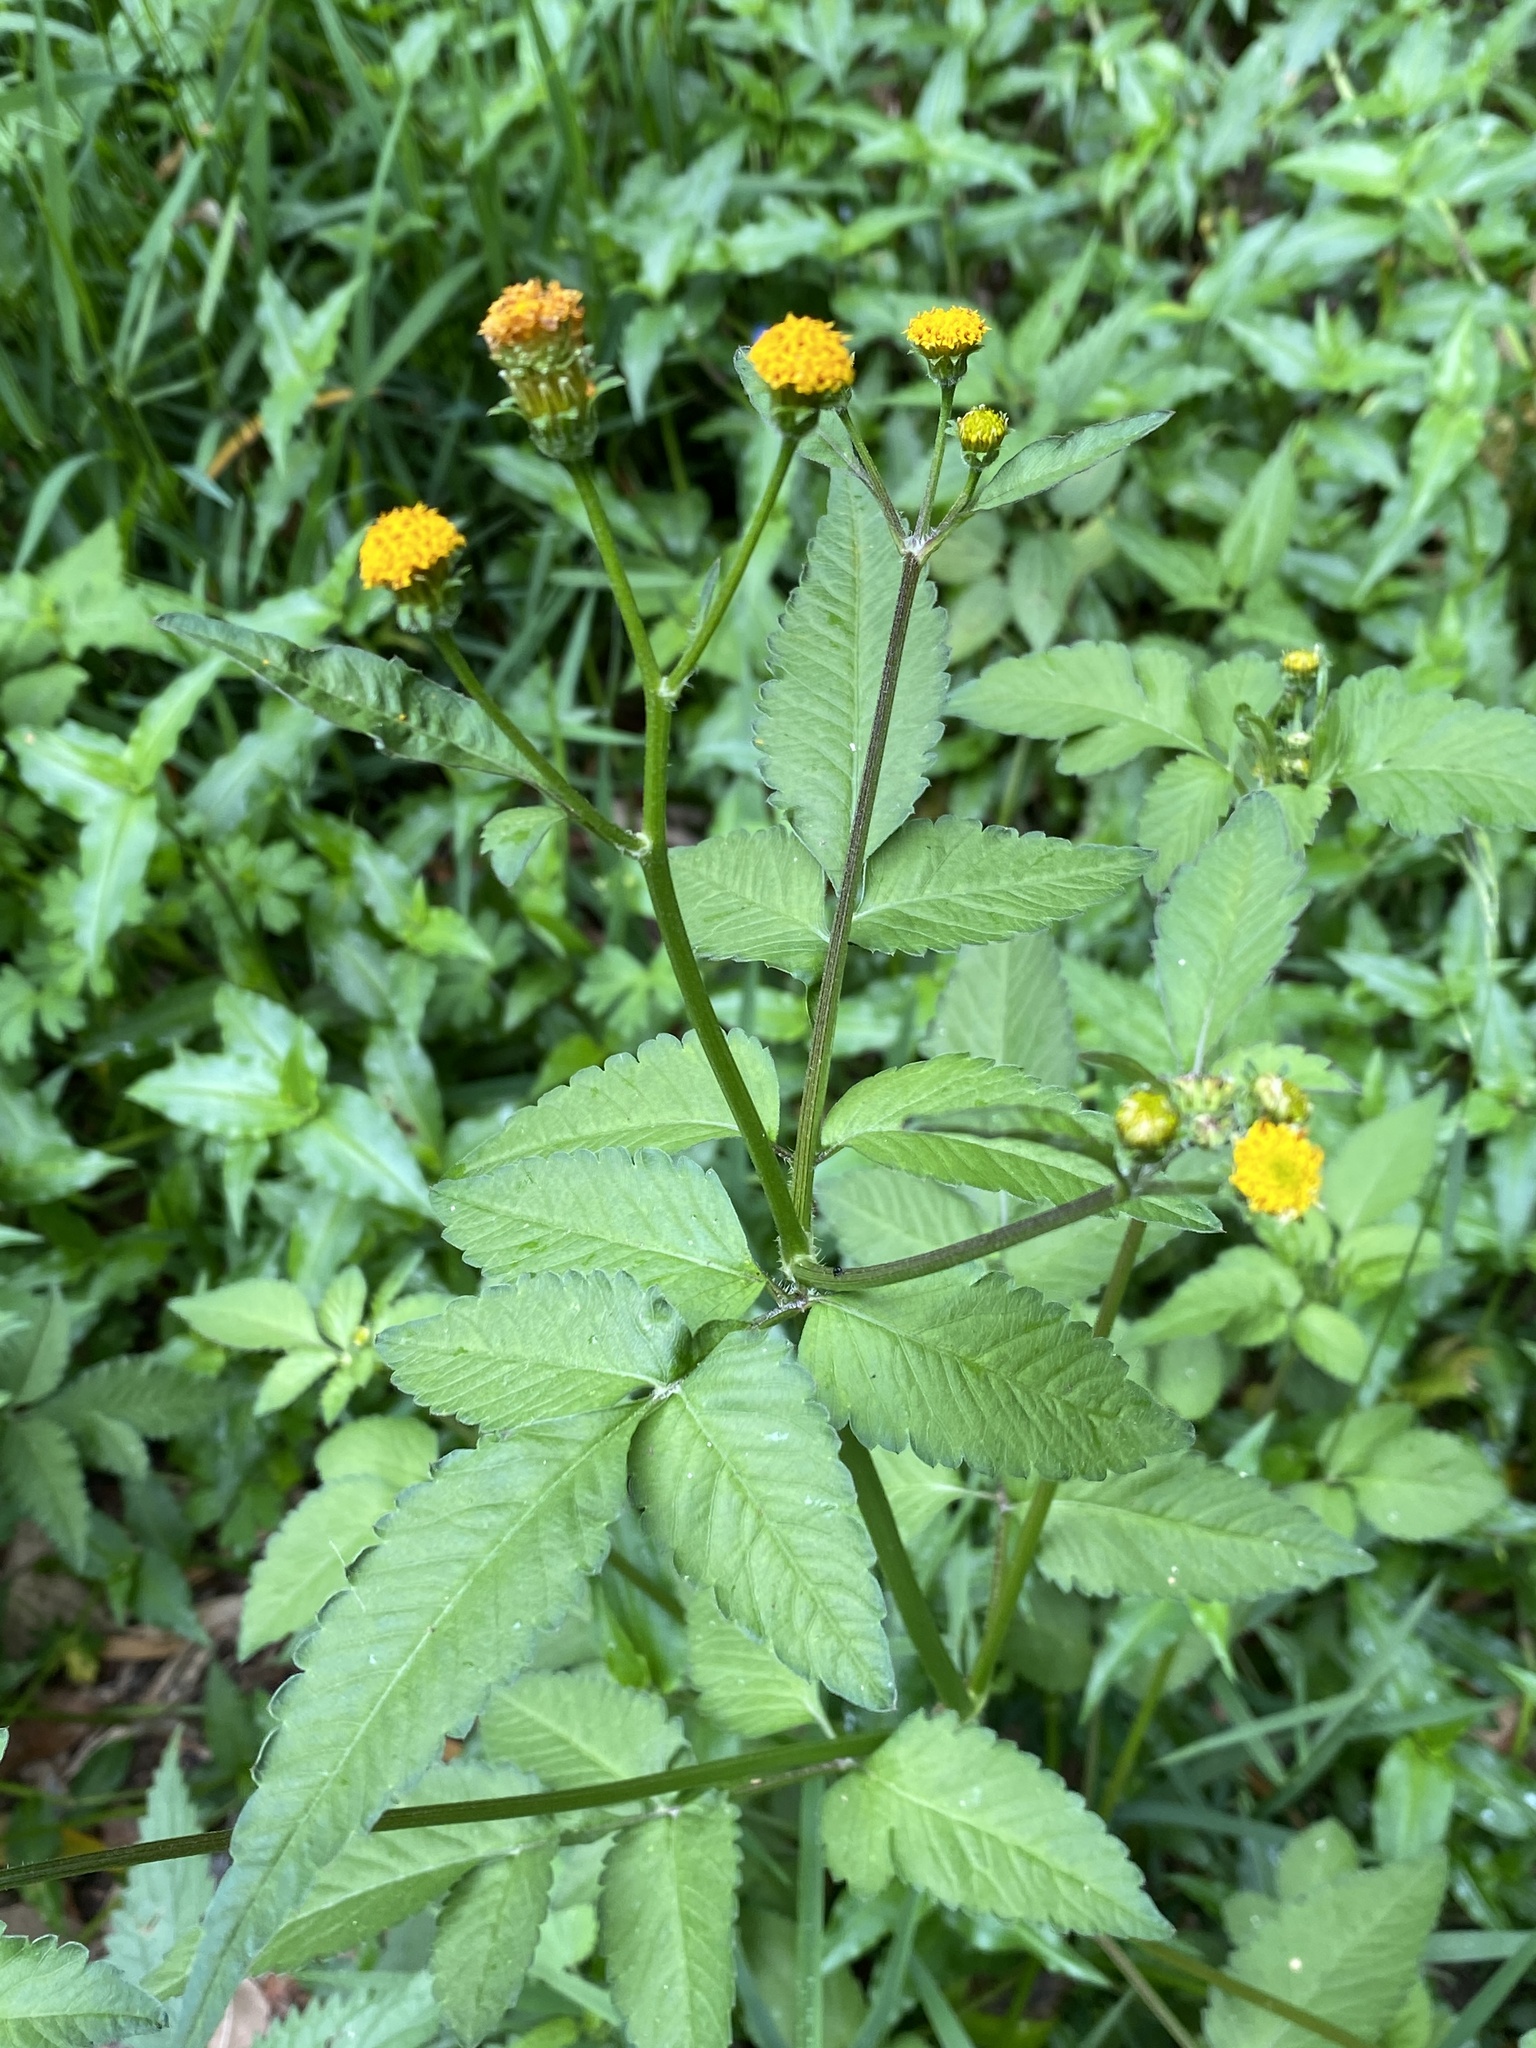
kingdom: Plantae
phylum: Tracheophyta
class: Magnoliopsida
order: Asterales
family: Asteraceae
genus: Bidens
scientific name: Bidens pilosa
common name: Black-jack
